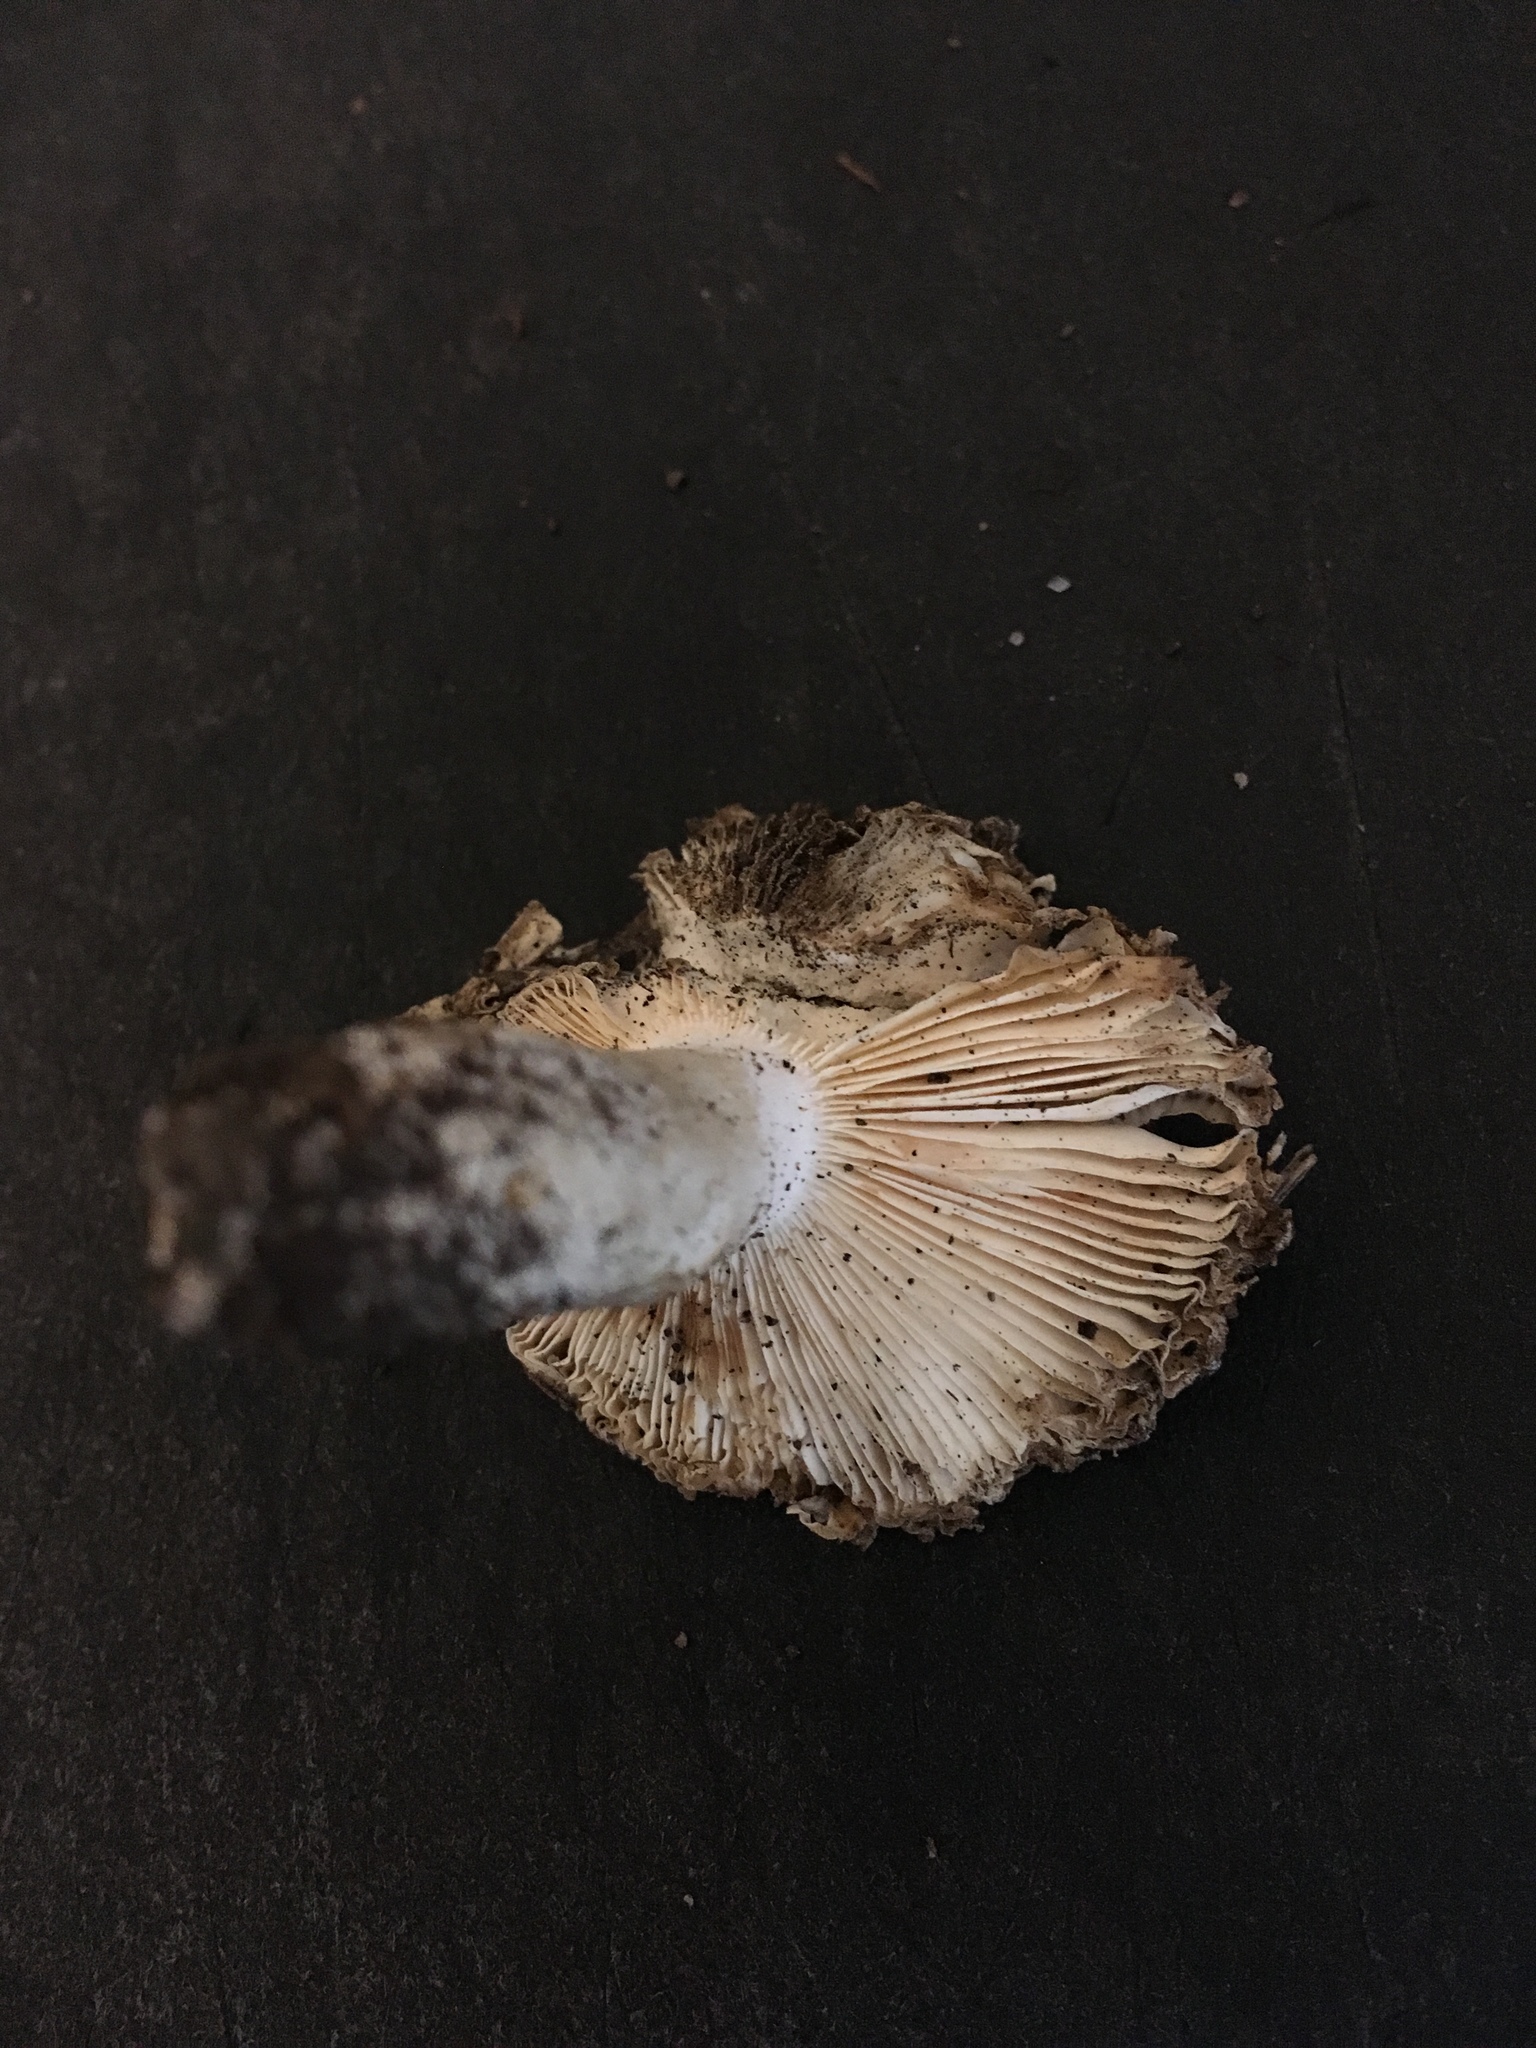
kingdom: Fungi
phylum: Basidiomycota
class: Agaricomycetes
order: Russulales
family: Russulaceae
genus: Russula
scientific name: Russula amoenolens
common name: Camembert brittlegill
